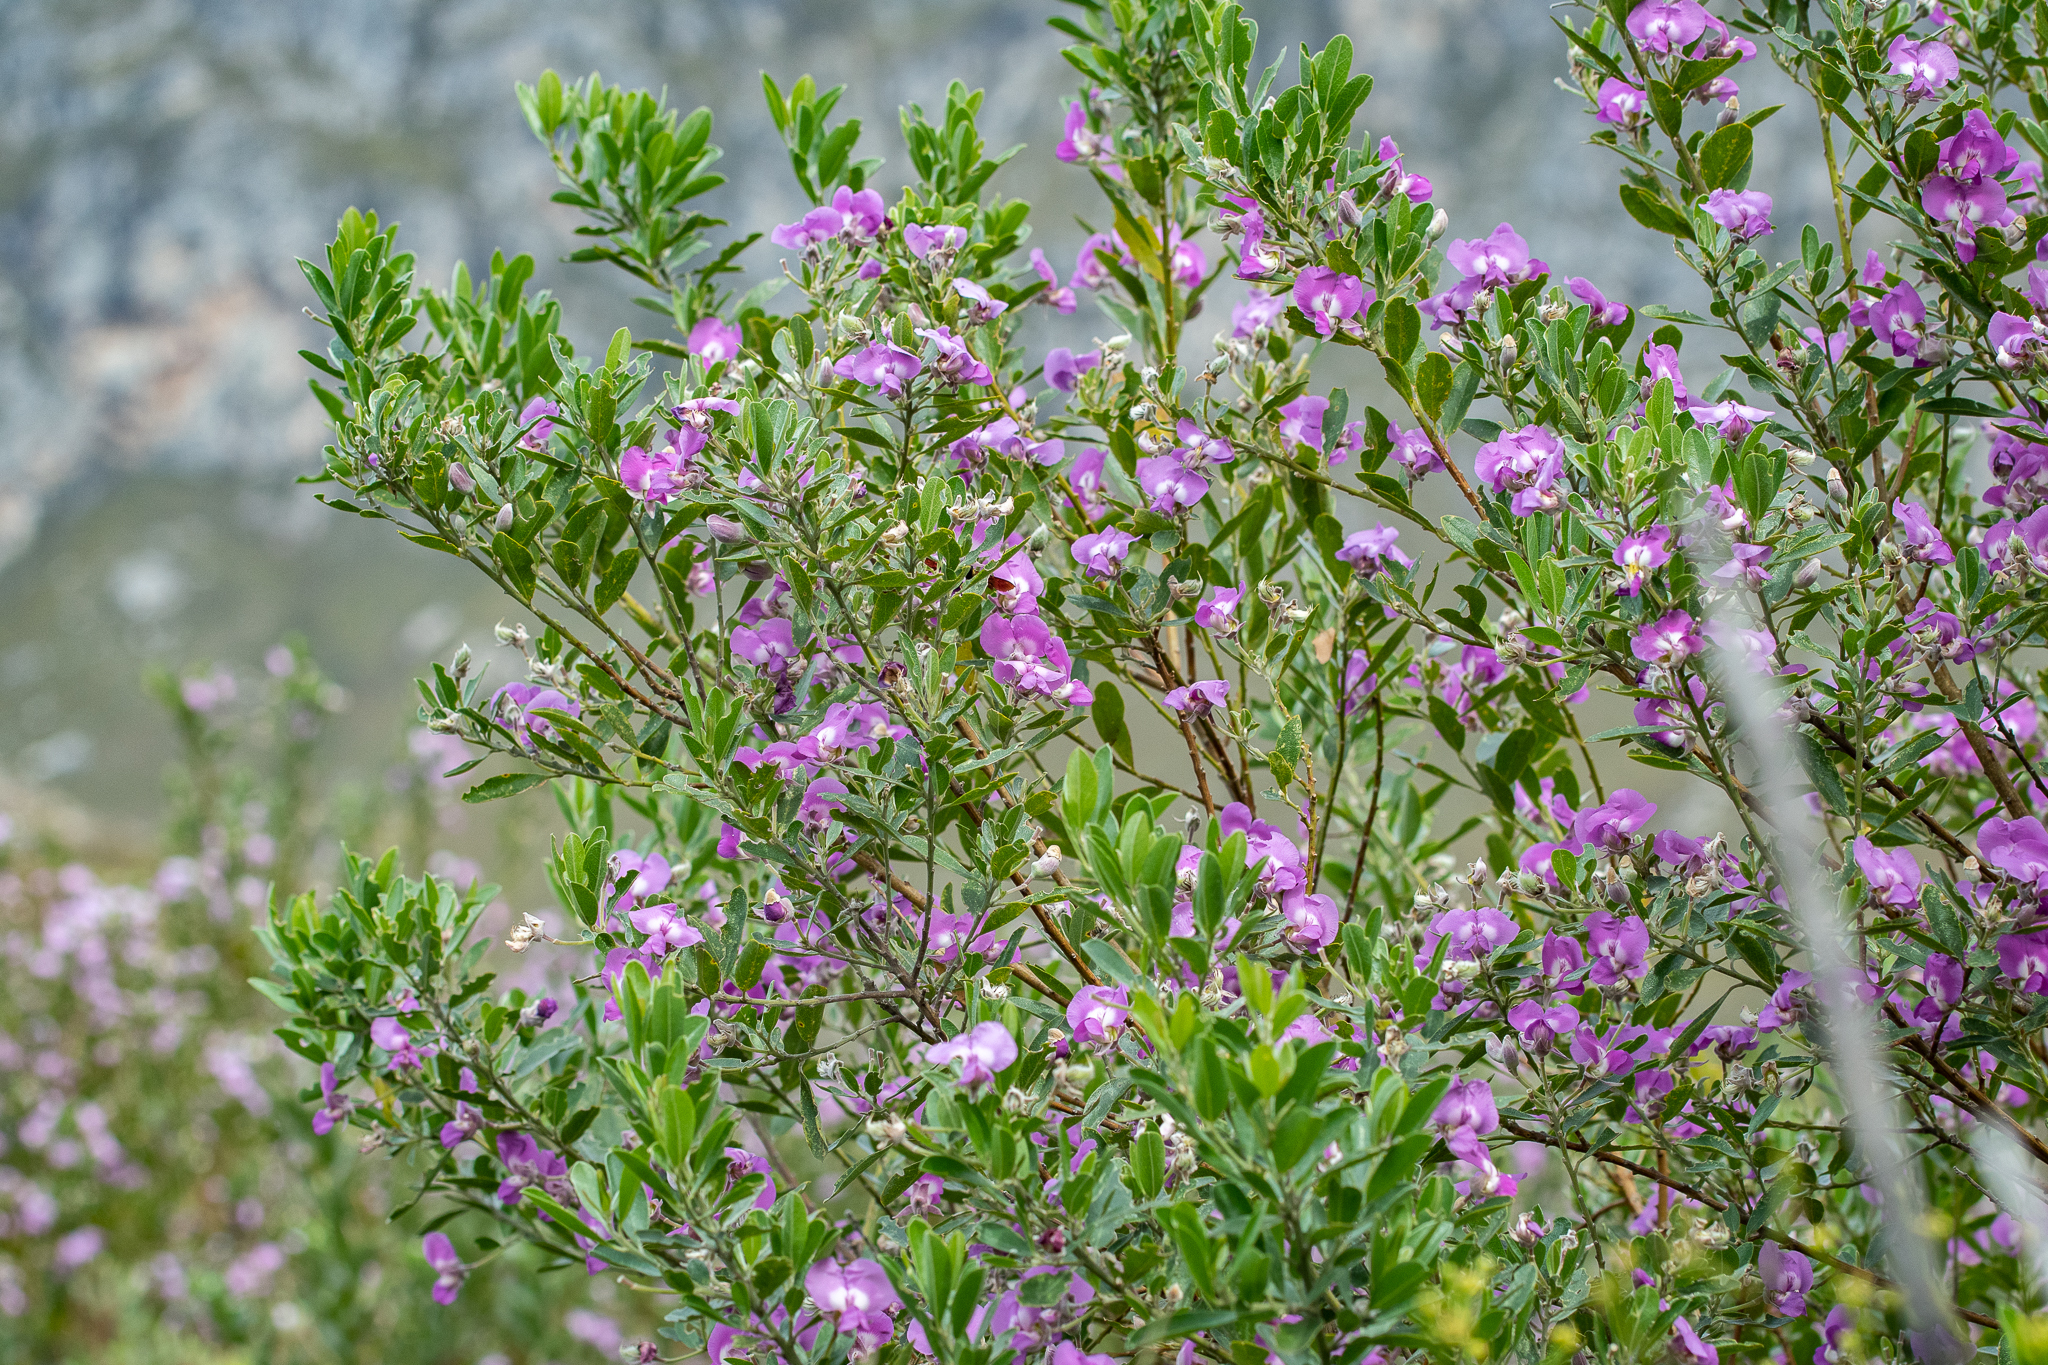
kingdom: Plantae
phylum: Tracheophyta
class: Magnoliopsida
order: Fabales
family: Fabaceae
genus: Podalyria
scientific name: Podalyria calyptrata
